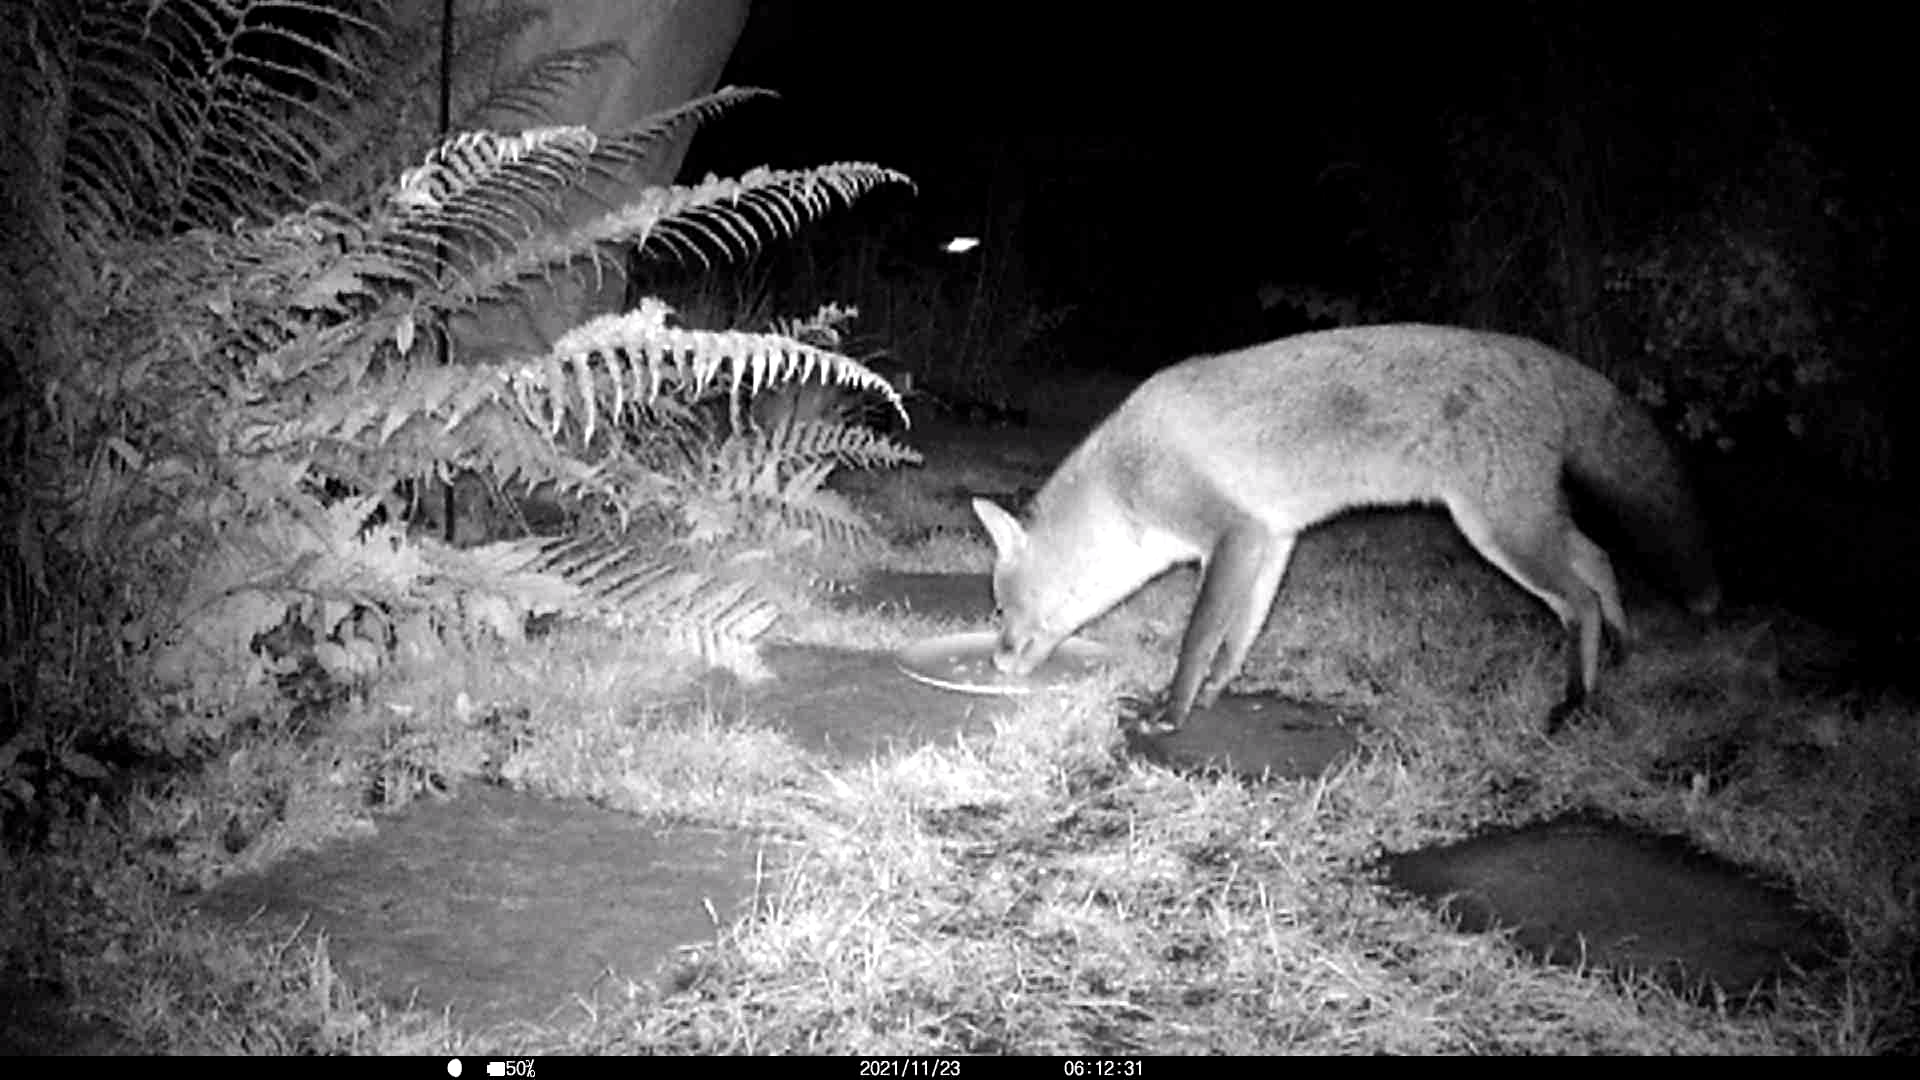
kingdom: Animalia
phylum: Chordata
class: Mammalia
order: Carnivora
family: Canidae
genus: Vulpes
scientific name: Vulpes vulpes
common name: Red fox
